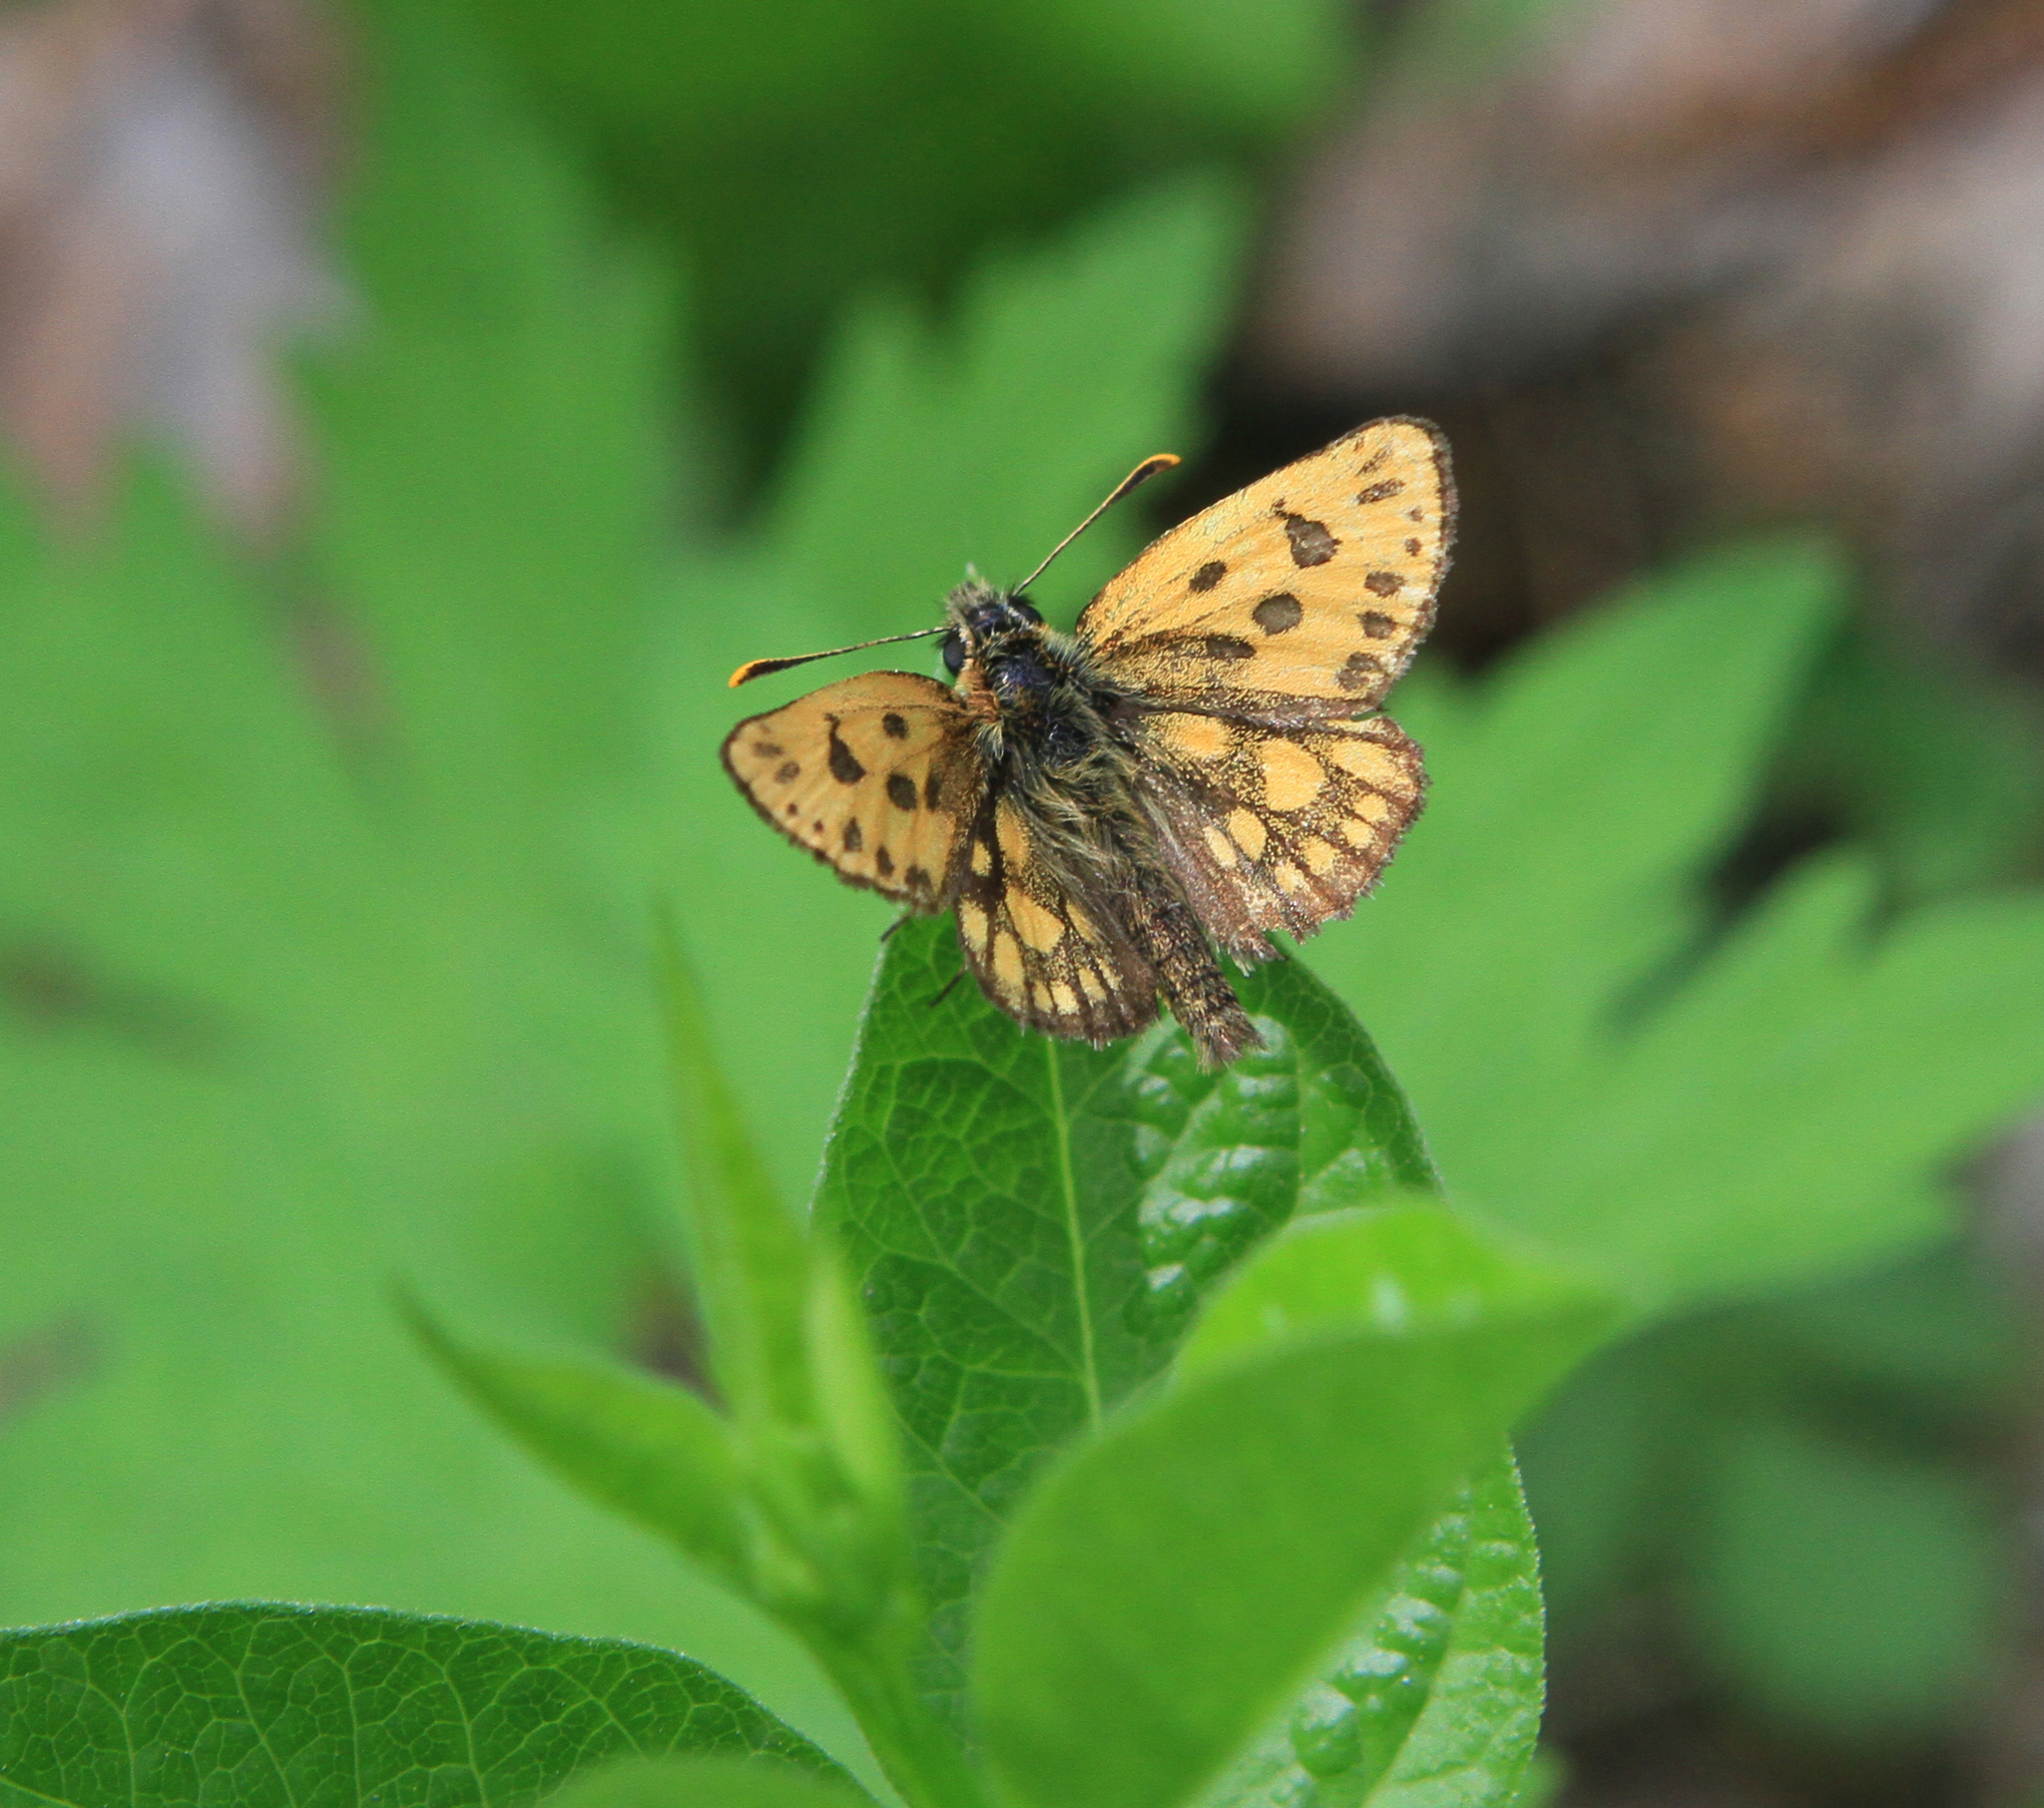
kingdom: Animalia
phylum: Arthropoda
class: Insecta
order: Lepidoptera
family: Hesperiidae
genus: Carterocephalus
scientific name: Carterocephalus silvicola
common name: Northern chequered skipper
